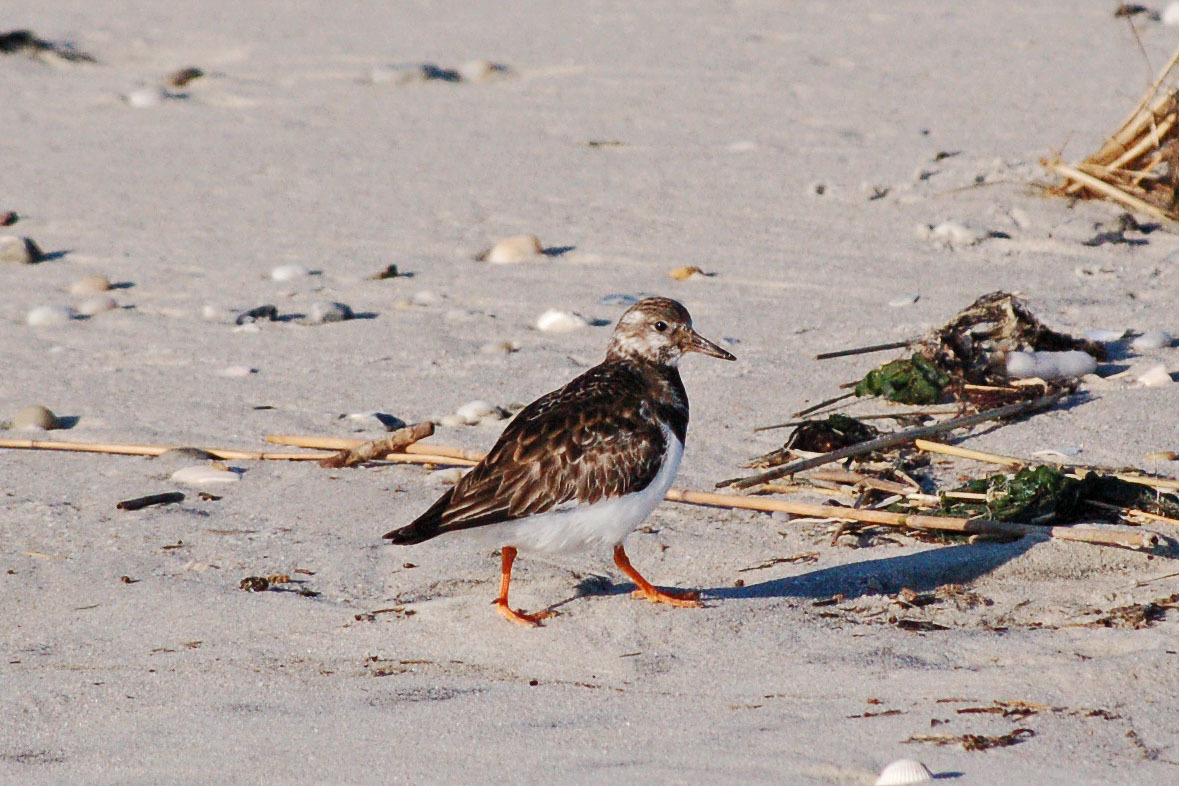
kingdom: Animalia
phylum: Chordata
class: Aves
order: Charadriiformes
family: Scolopacidae
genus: Arenaria
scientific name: Arenaria interpres
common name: Ruddy turnstone
